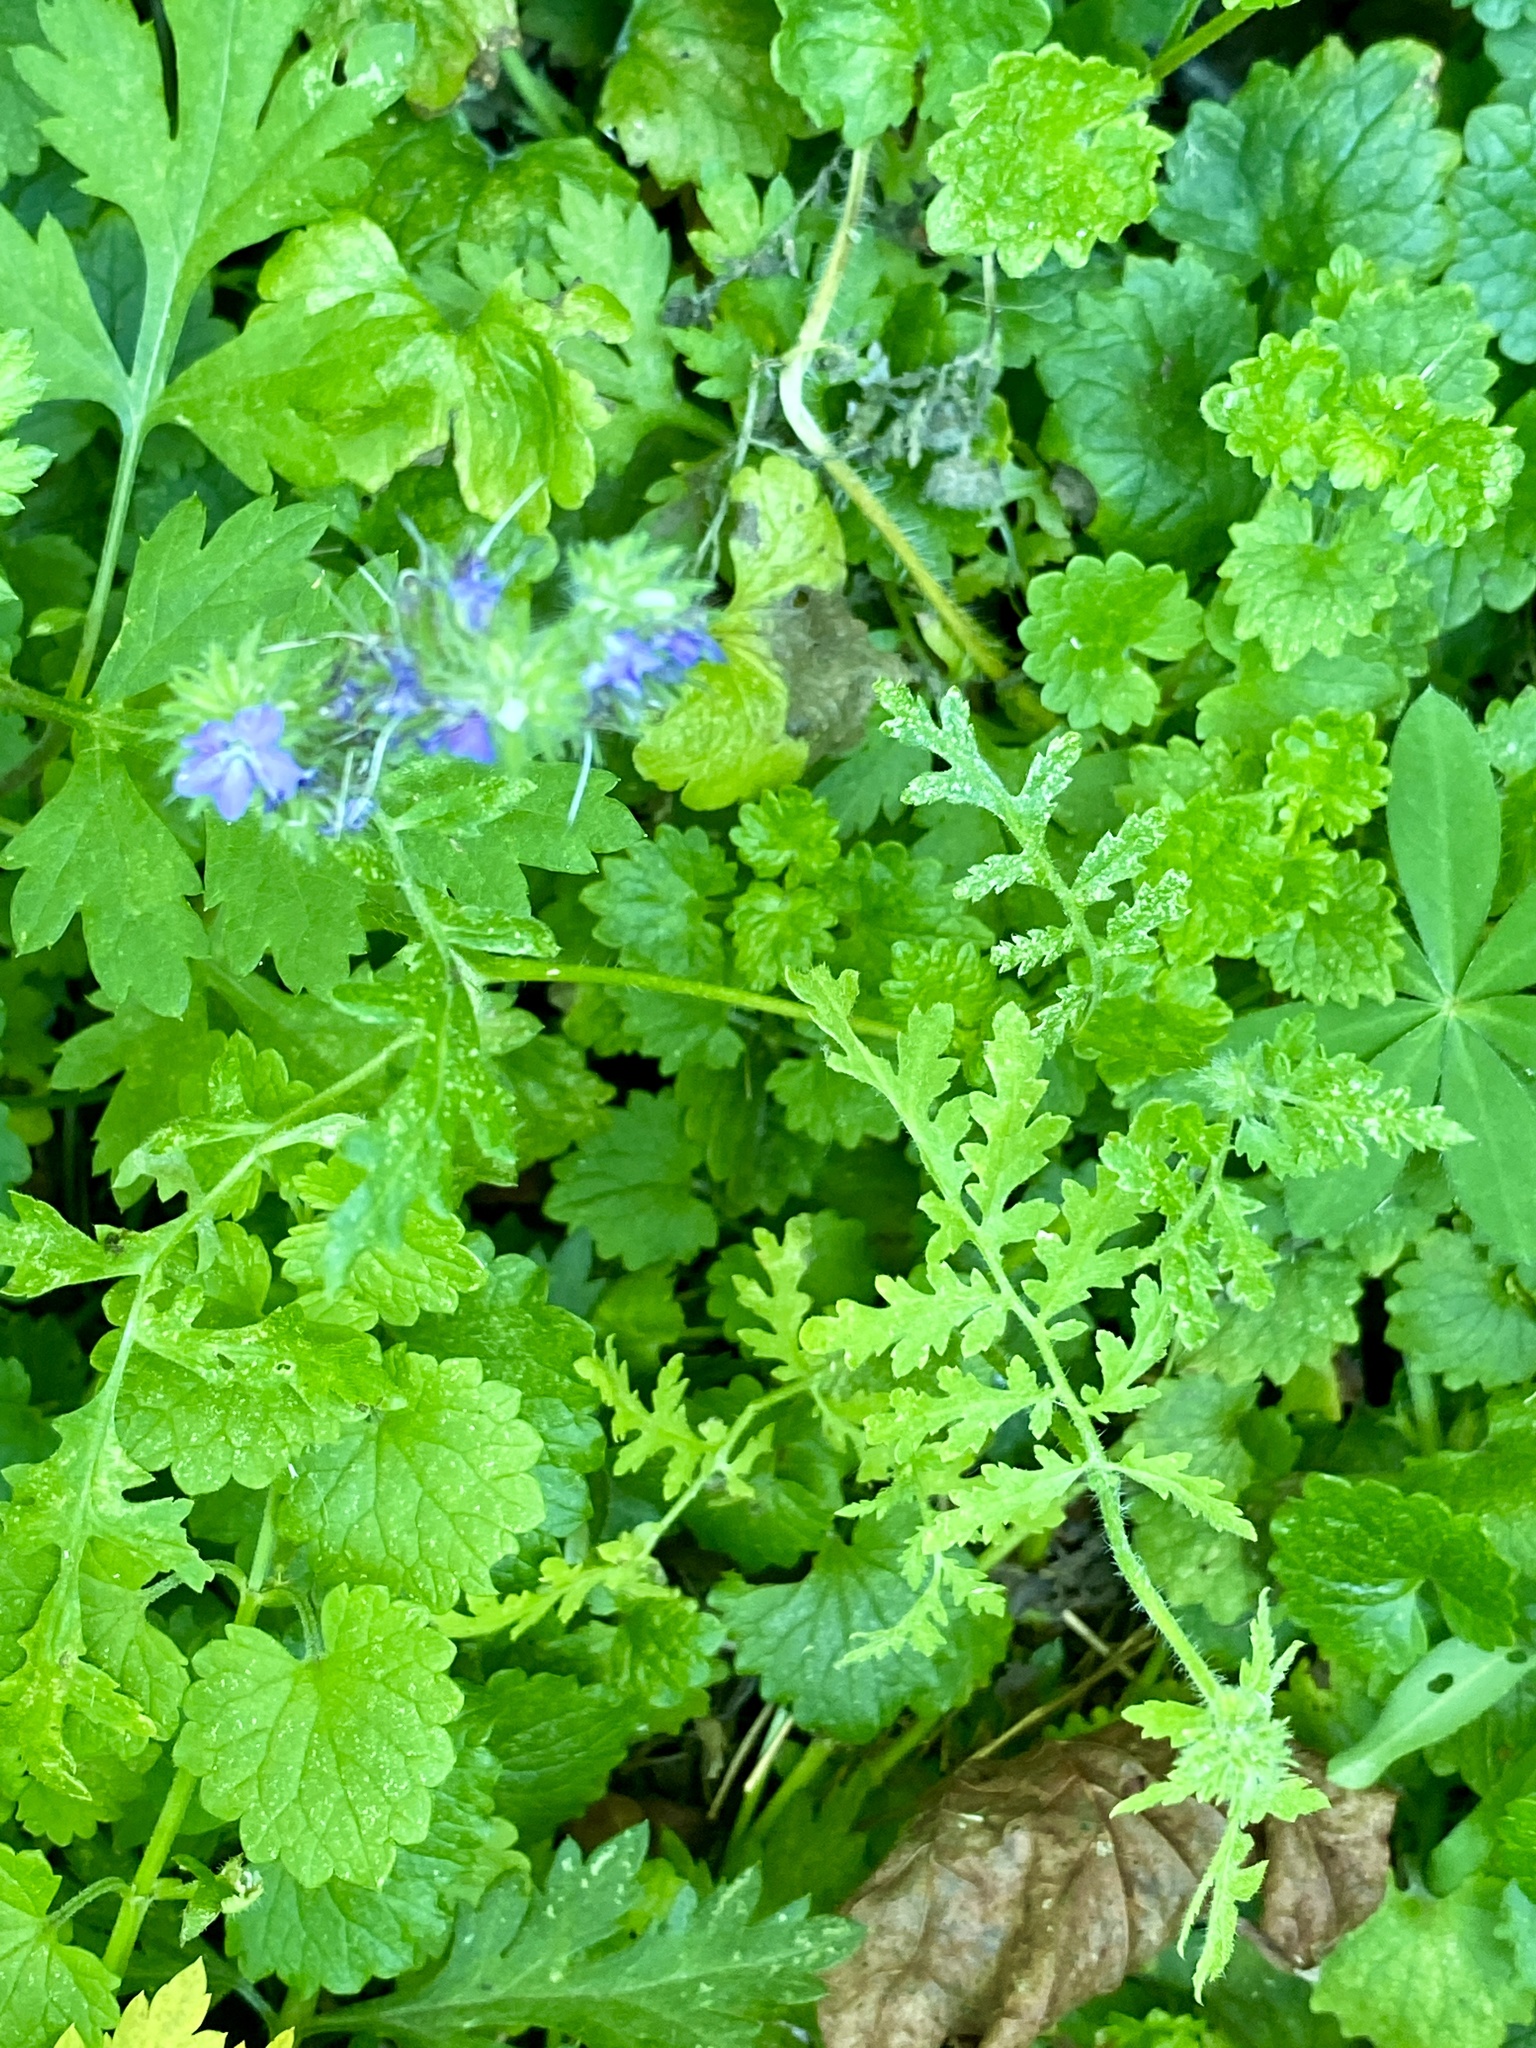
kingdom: Plantae
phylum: Tracheophyta
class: Magnoliopsida
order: Boraginales
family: Hydrophyllaceae
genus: Phacelia
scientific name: Phacelia tanacetifolia
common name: Phacelia
